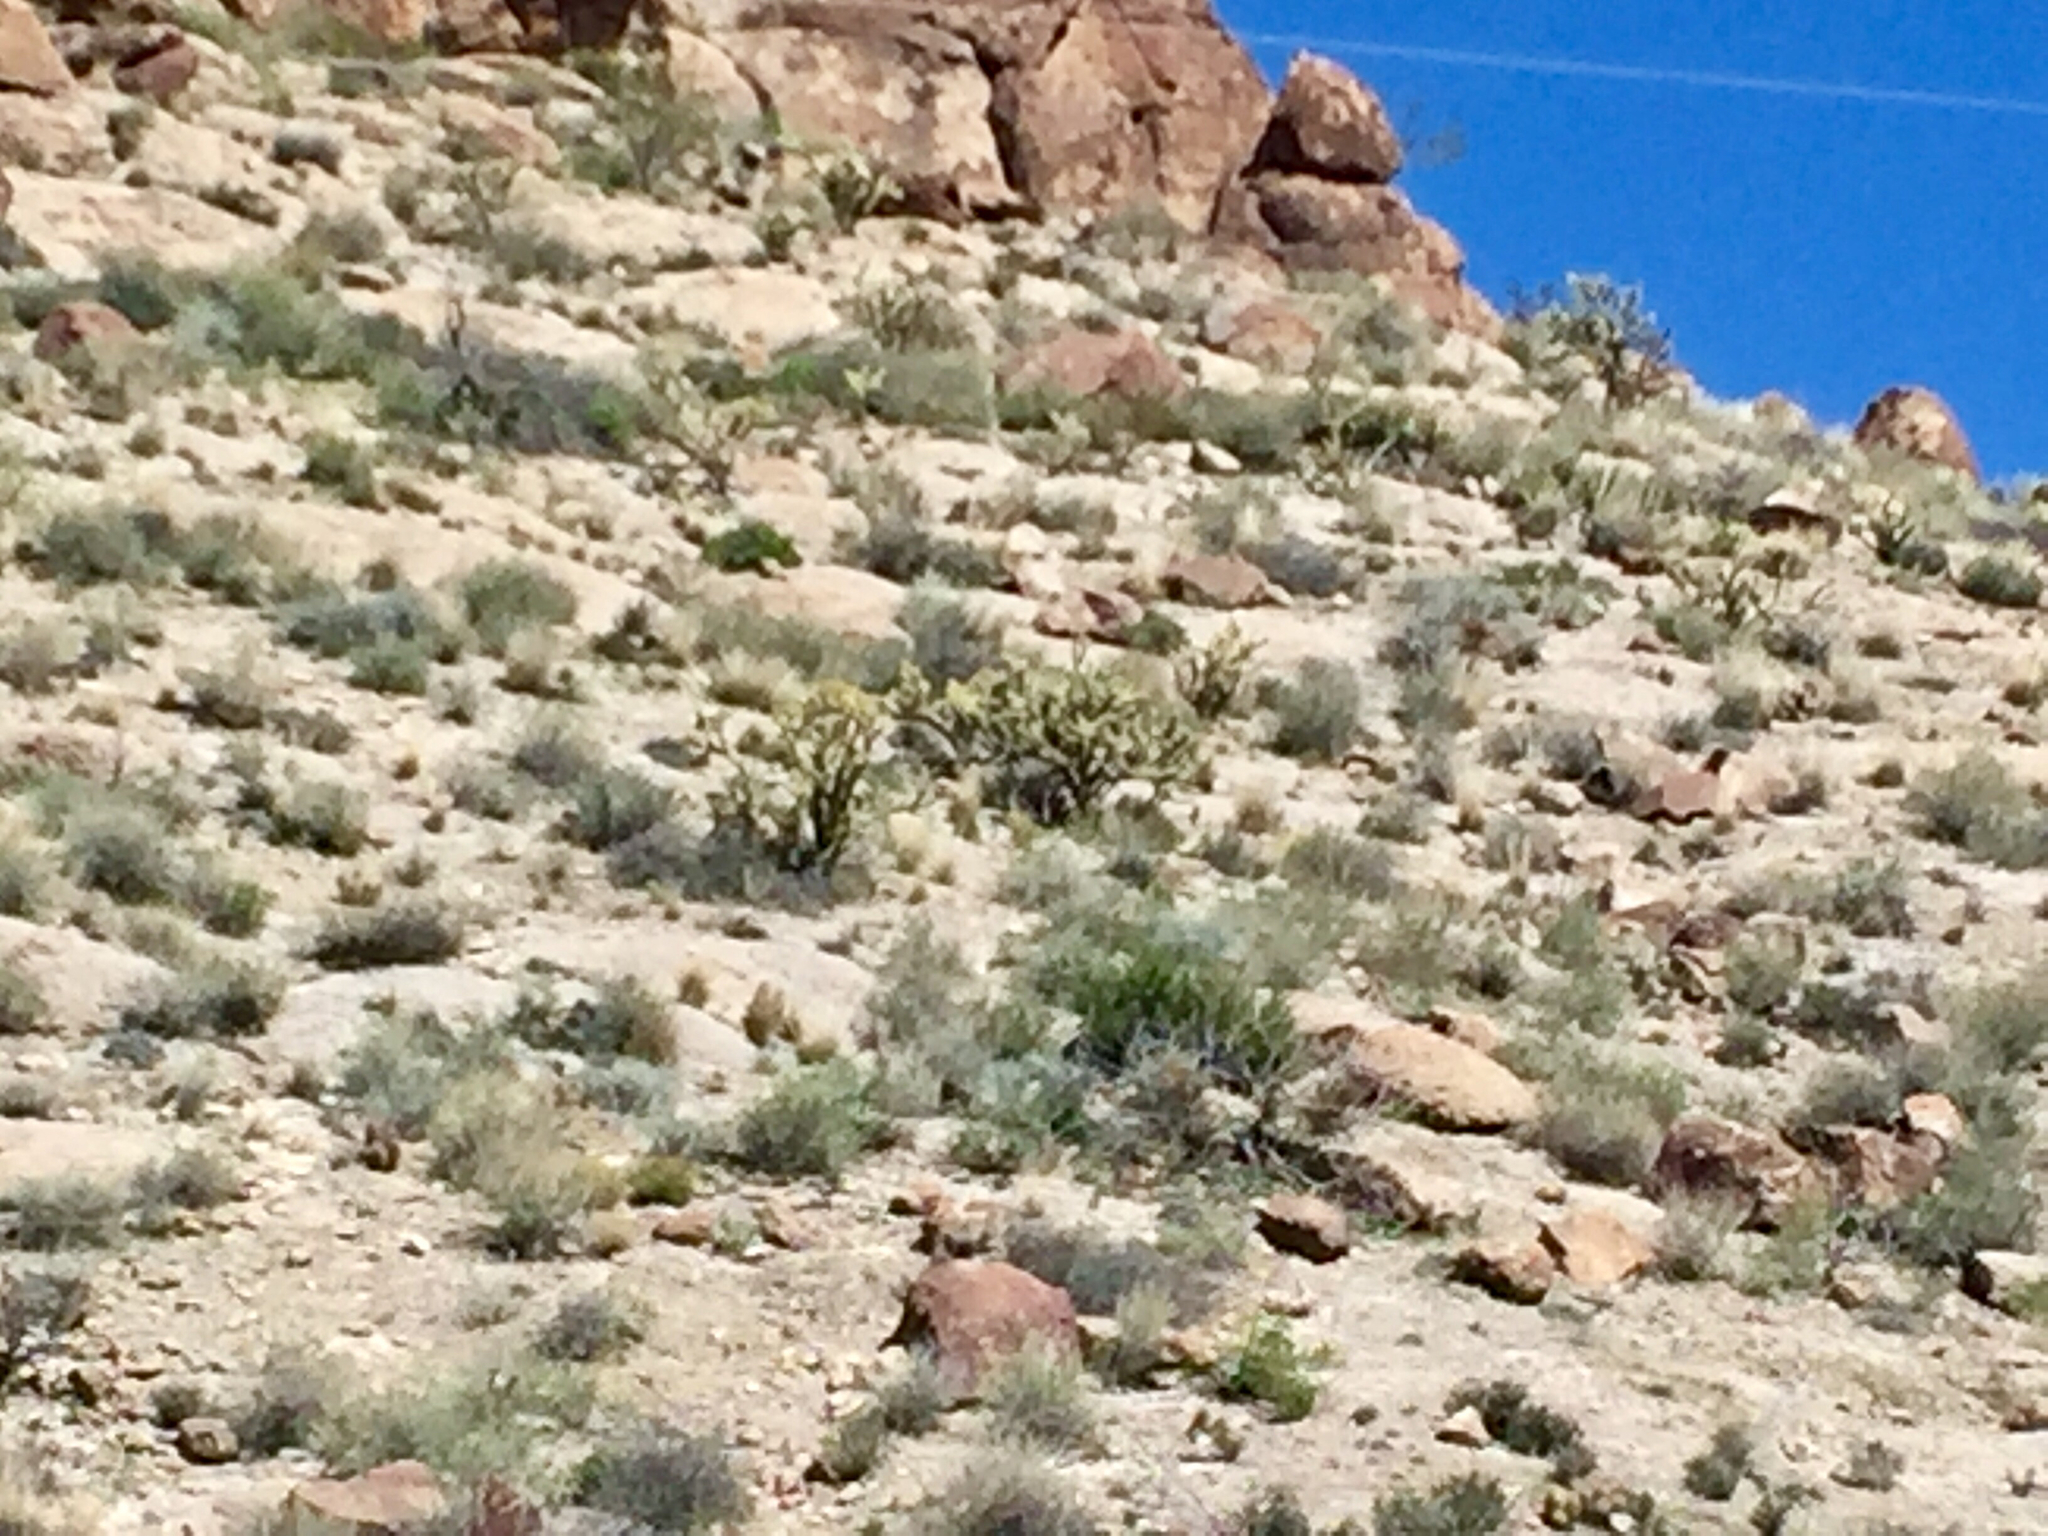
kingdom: Plantae
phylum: Tracheophyta
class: Magnoliopsida
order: Caryophyllales
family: Cactaceae
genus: Cylindropuntia
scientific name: Cylindropuntia acanthocarpa
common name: Buckhorn cholla
